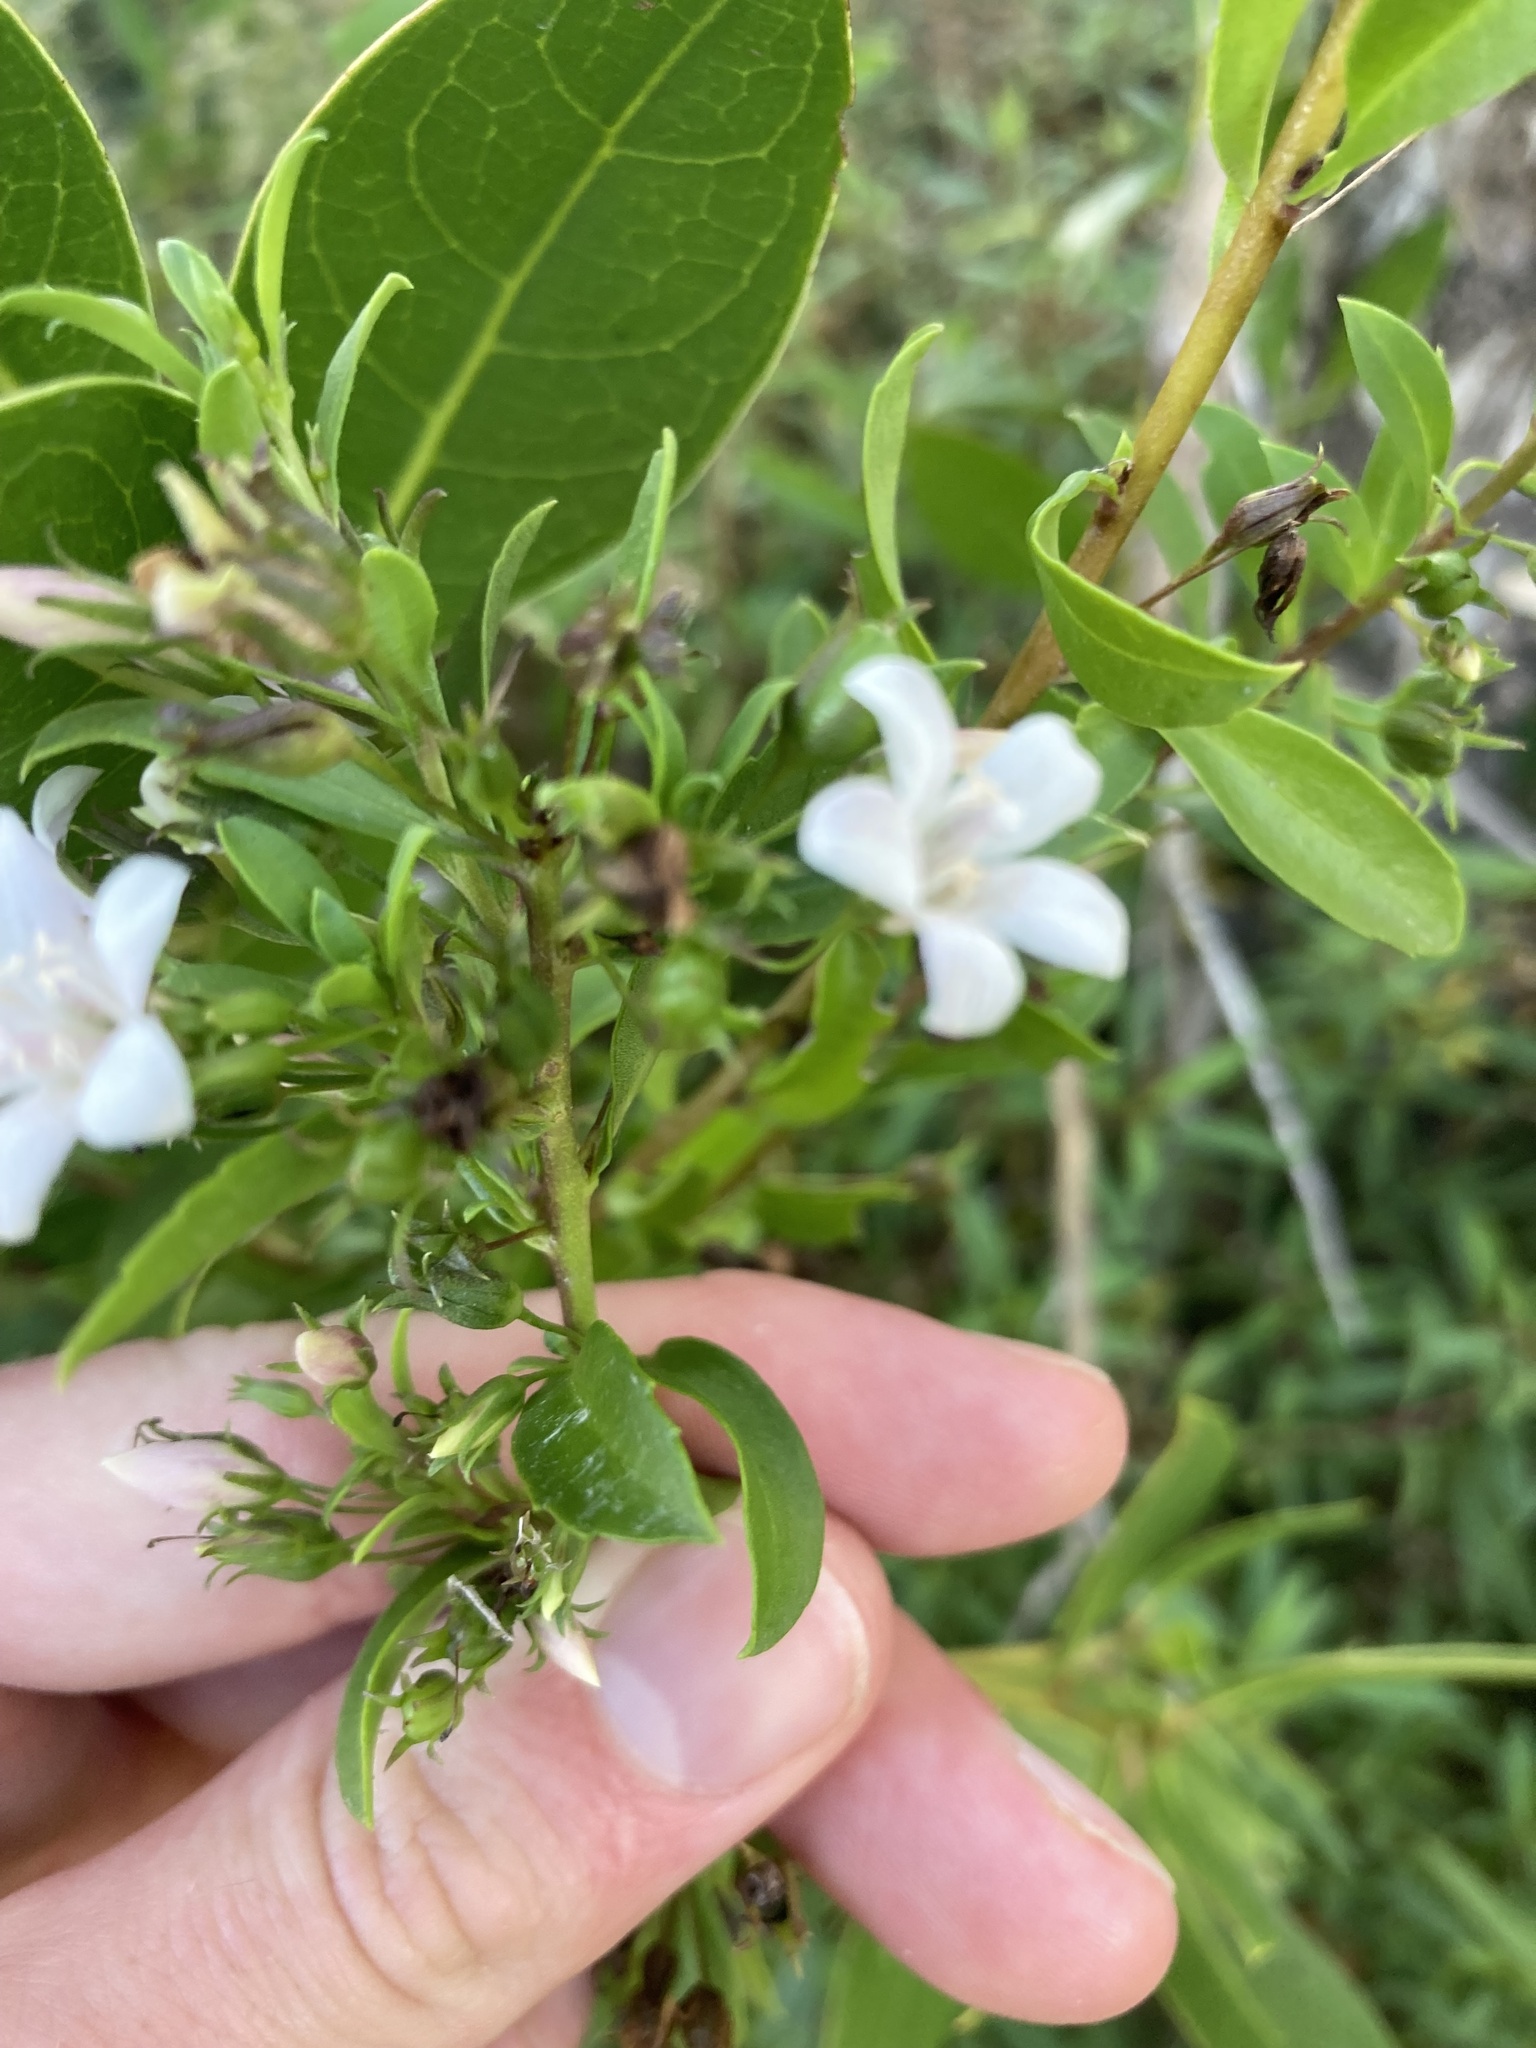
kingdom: Plantae
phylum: Tracheophyta
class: Magnoliopsida
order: Lamiales
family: Scrophulariaceae
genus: Capraria
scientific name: Capraria biflora
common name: Goatweed
